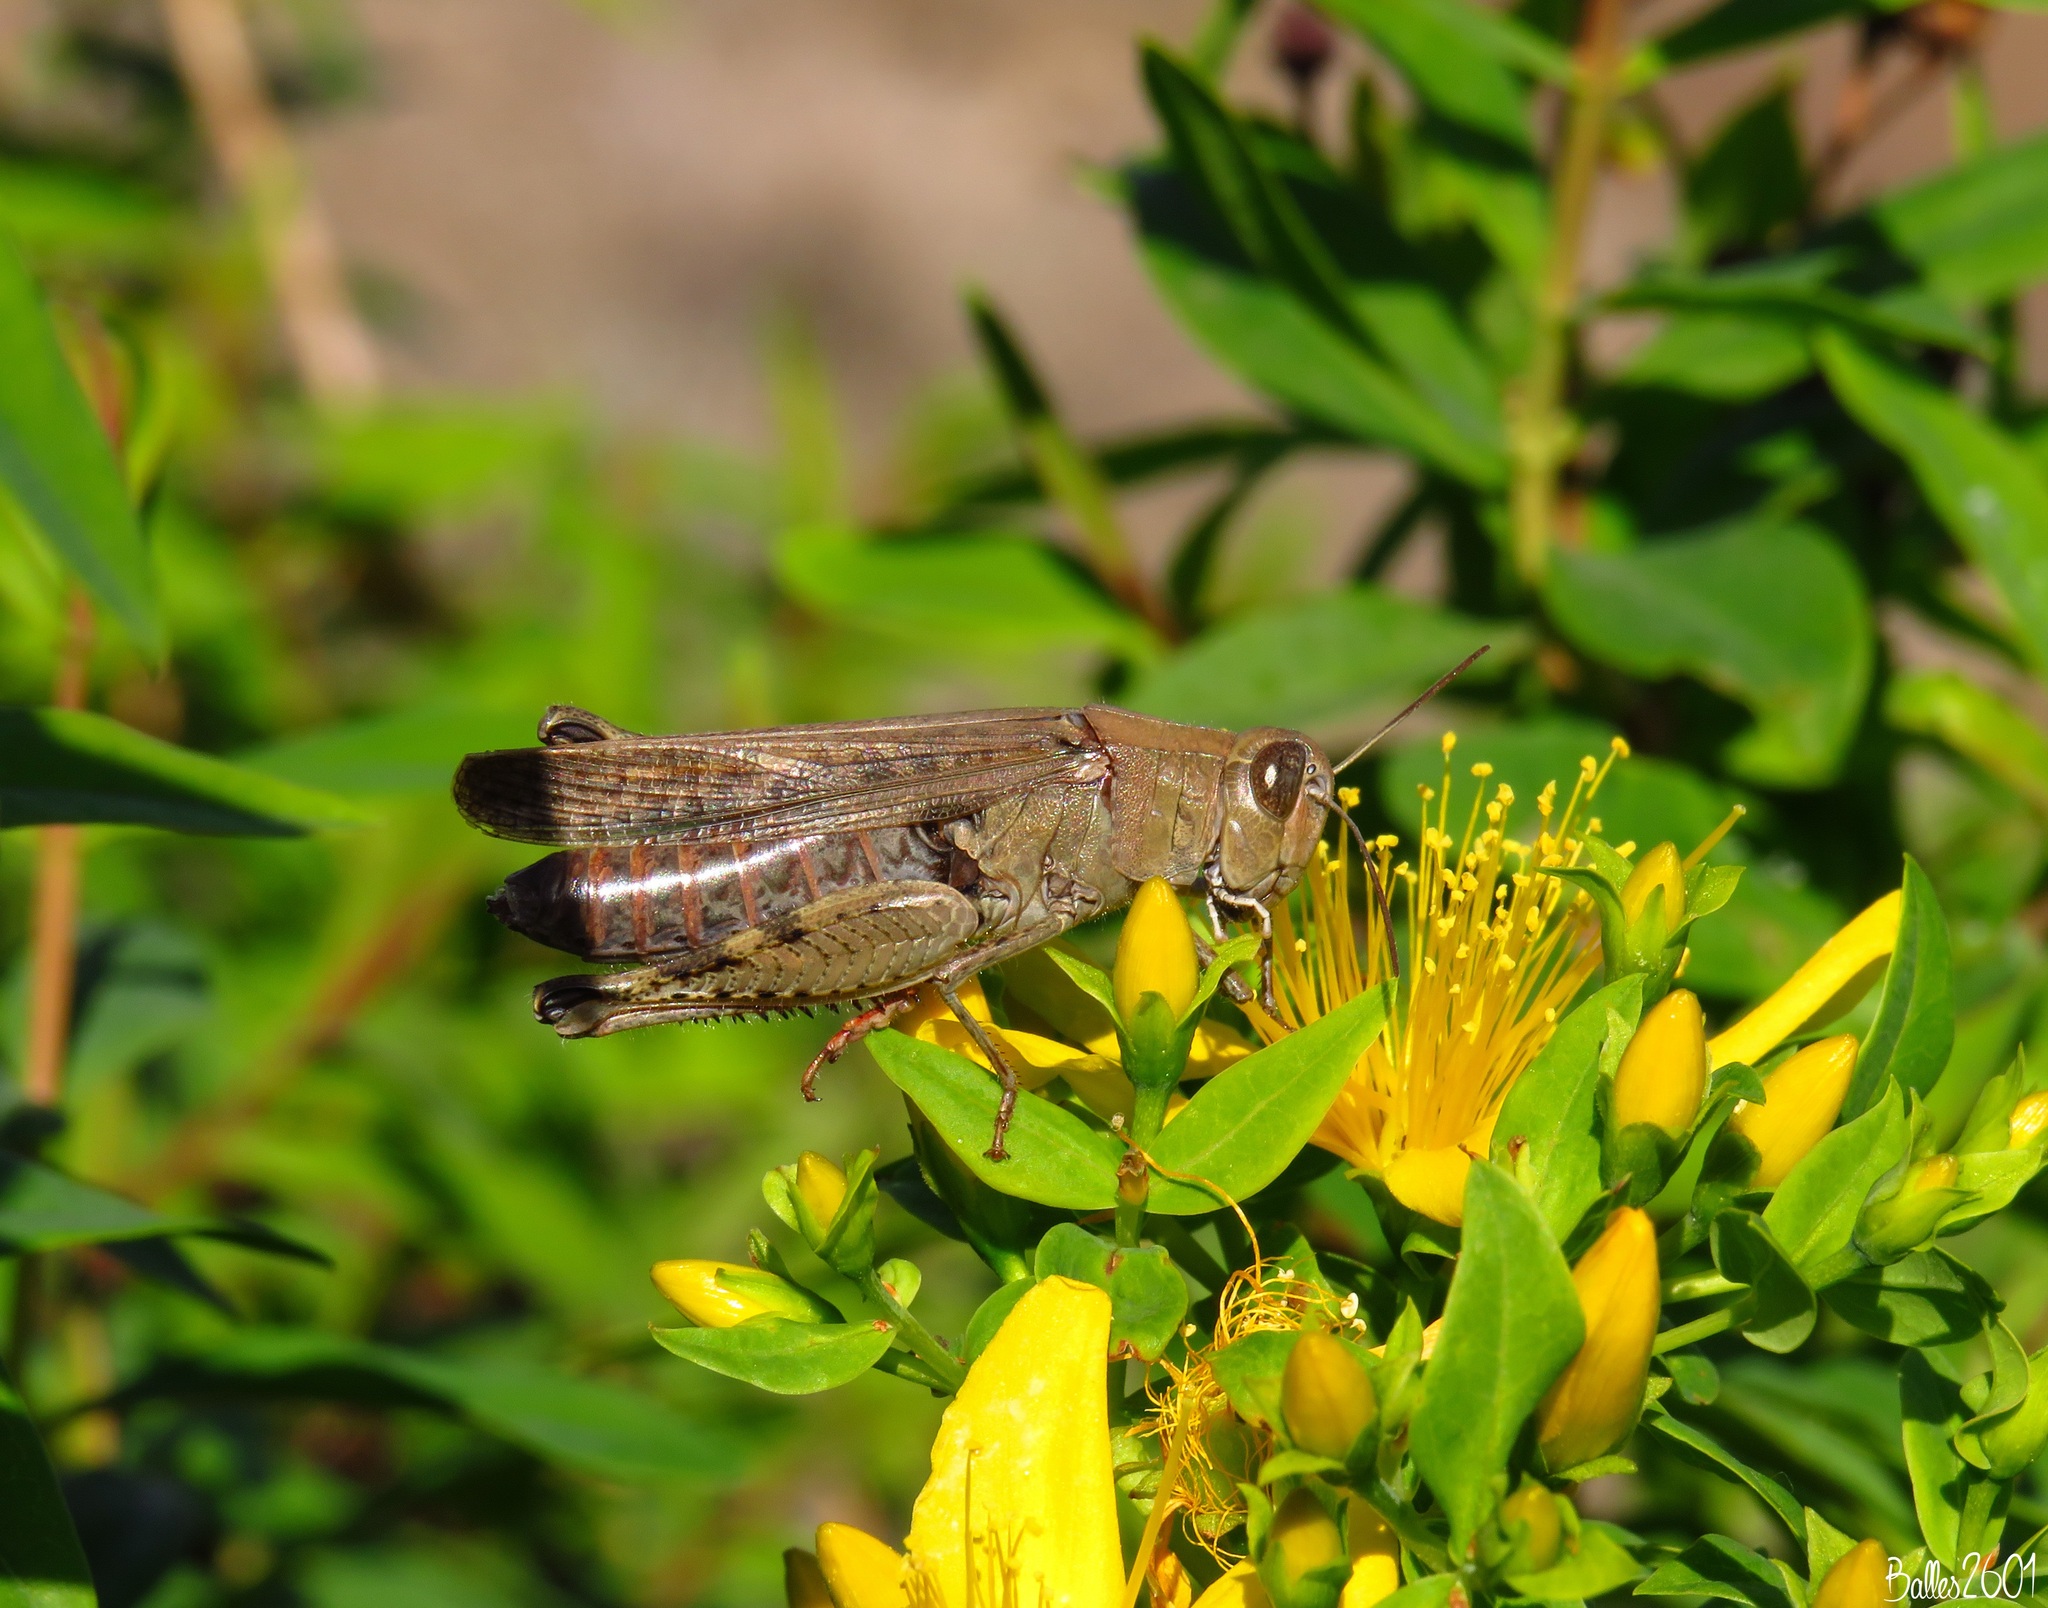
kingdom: Animalia
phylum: Arthropoda
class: Insecta
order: Orthoptera
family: Acrididae
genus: Calliptamus
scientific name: Calliptamus plebeius
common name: Canarian pincer grasshopper
